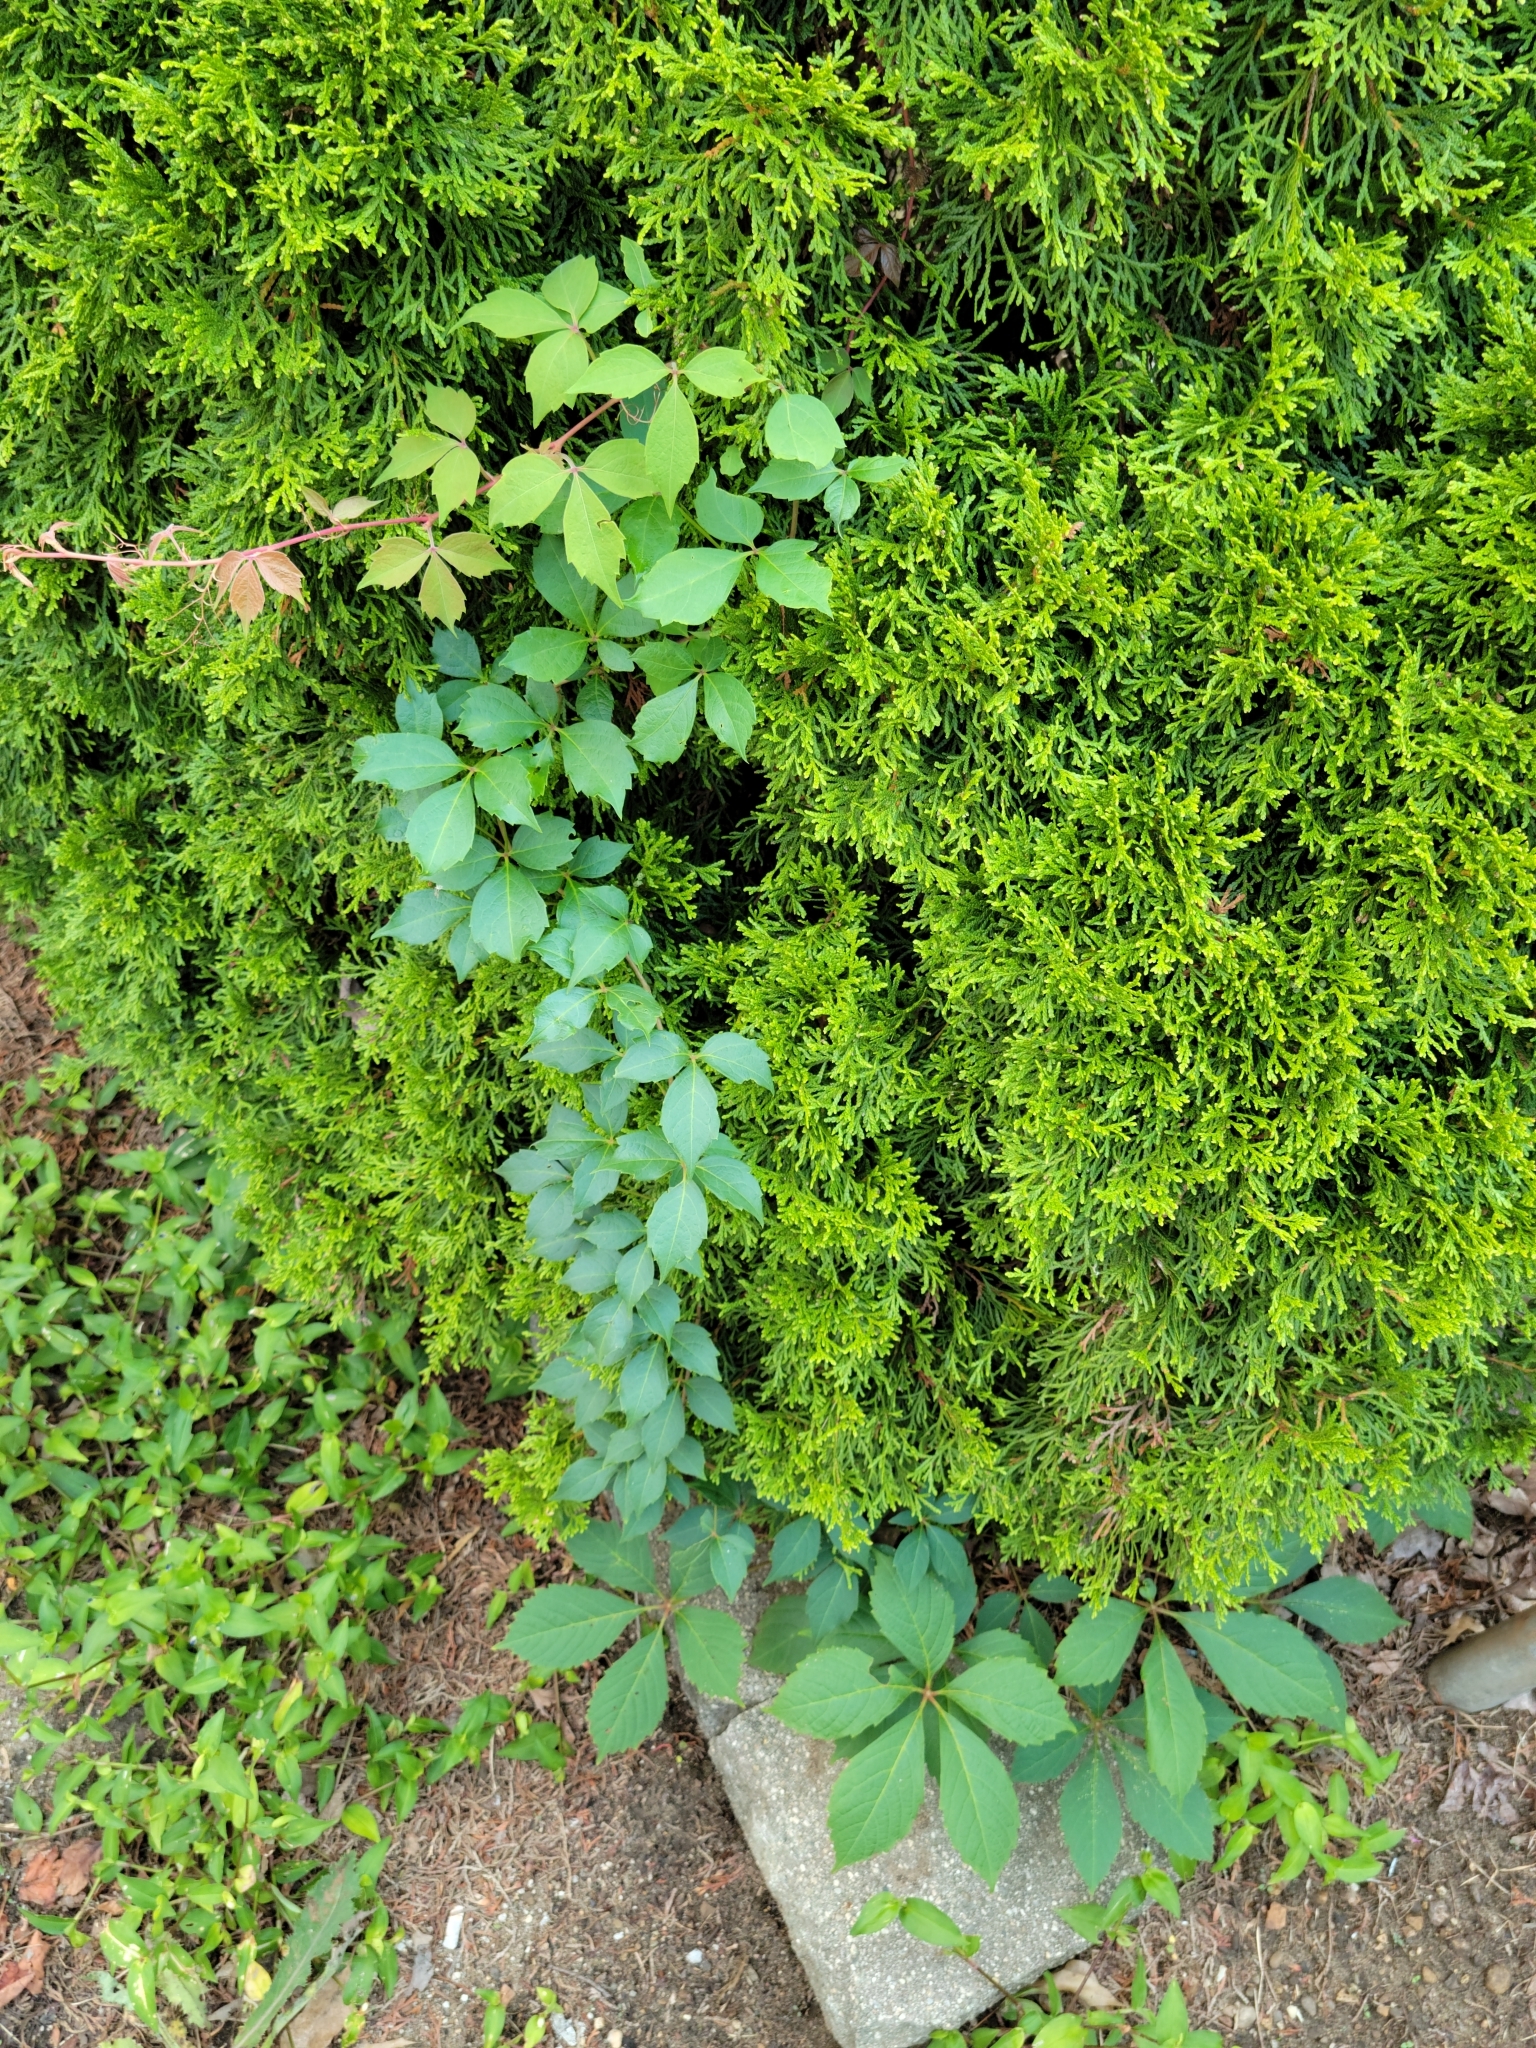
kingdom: Plantae
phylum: Tracheophyta
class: Magnoliopsida
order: Vitales
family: Vitaceae
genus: Parthenocissus
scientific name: Parthenocissus quinquefolia
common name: Virginia-creeper
